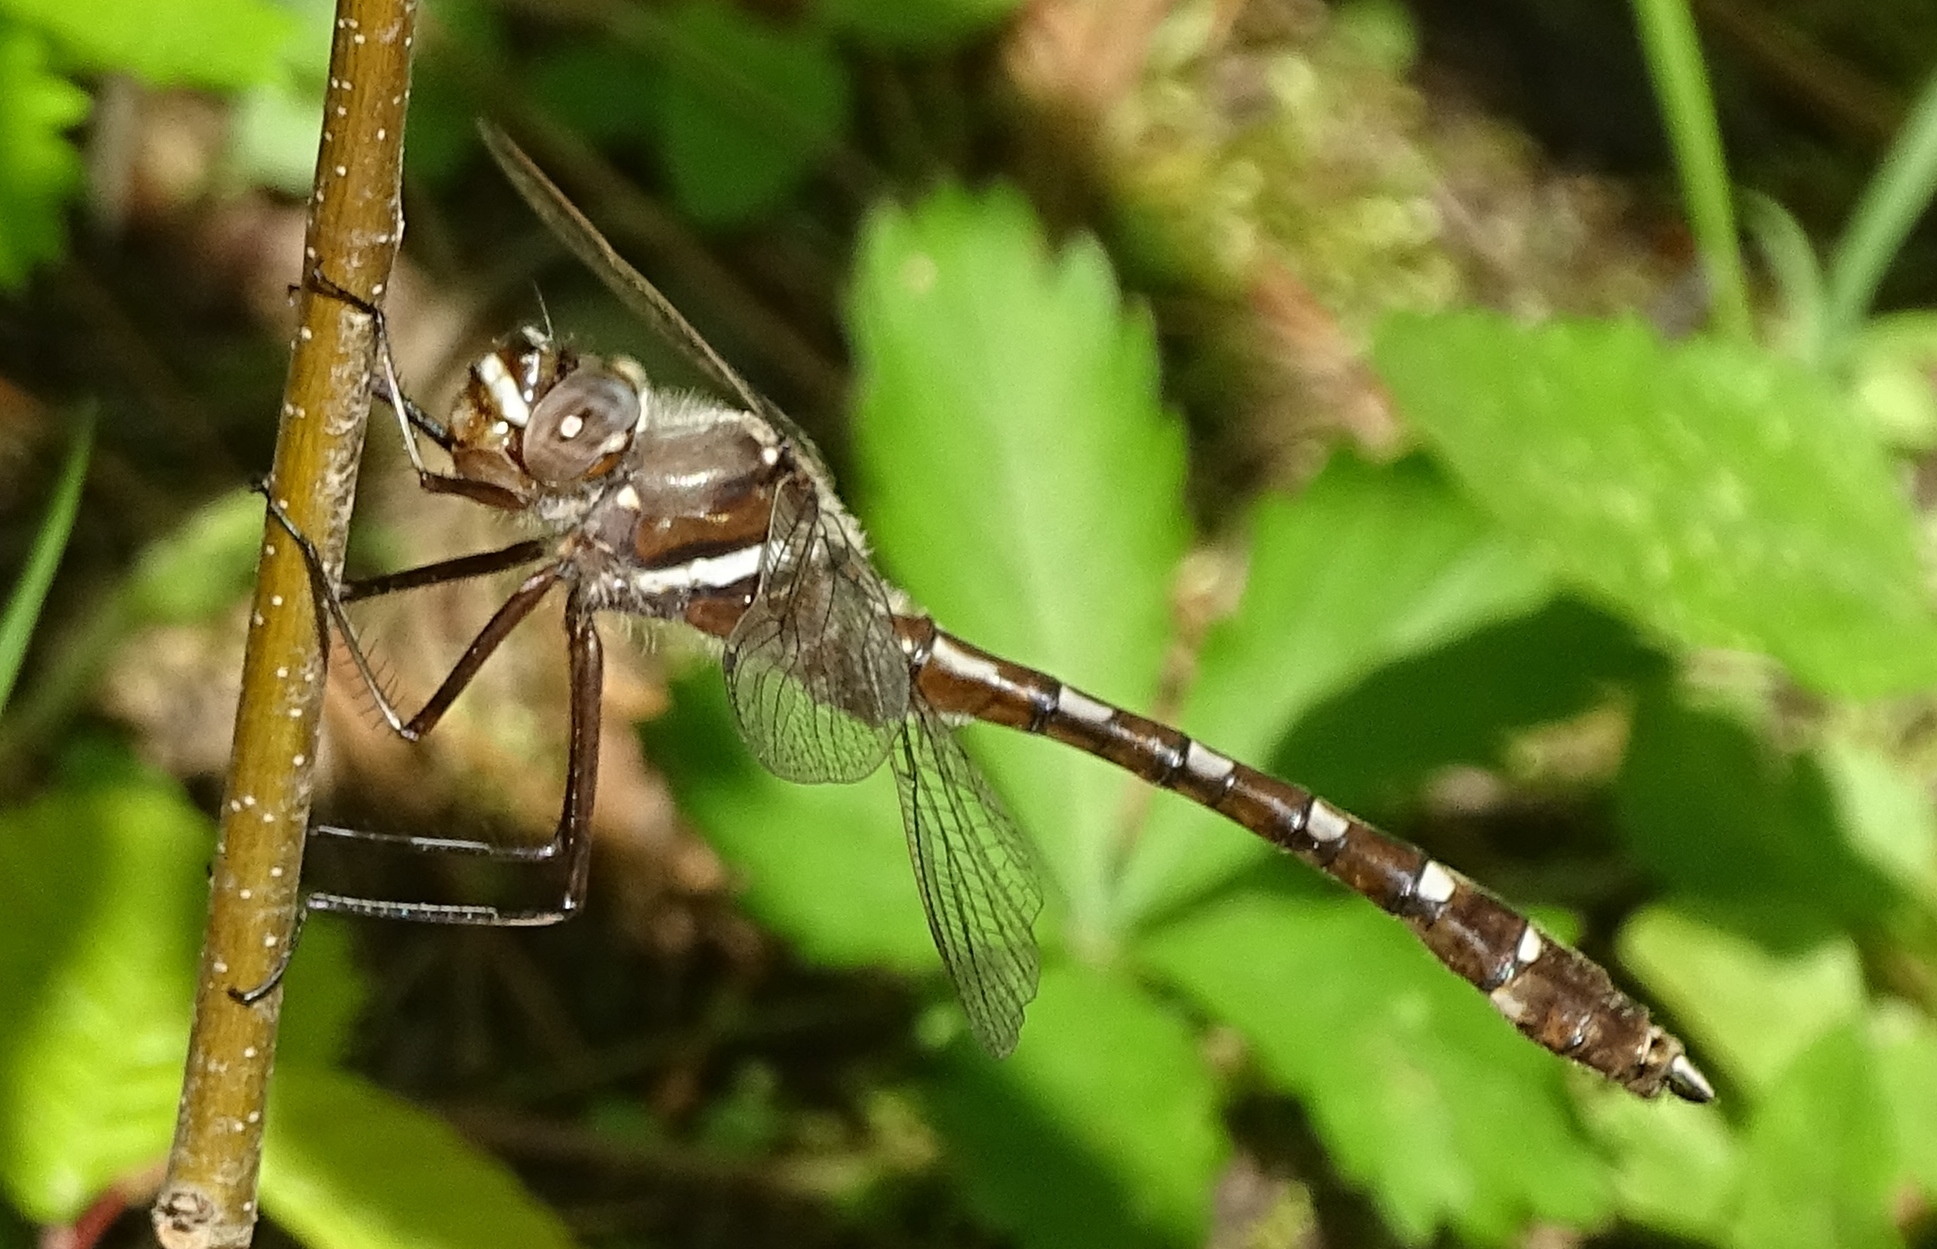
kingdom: Animalia
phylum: Arthropoda
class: Insecta
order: Odonata
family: Macromiidae
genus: Didymops
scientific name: Didymops transversa
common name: Stream cruiser
